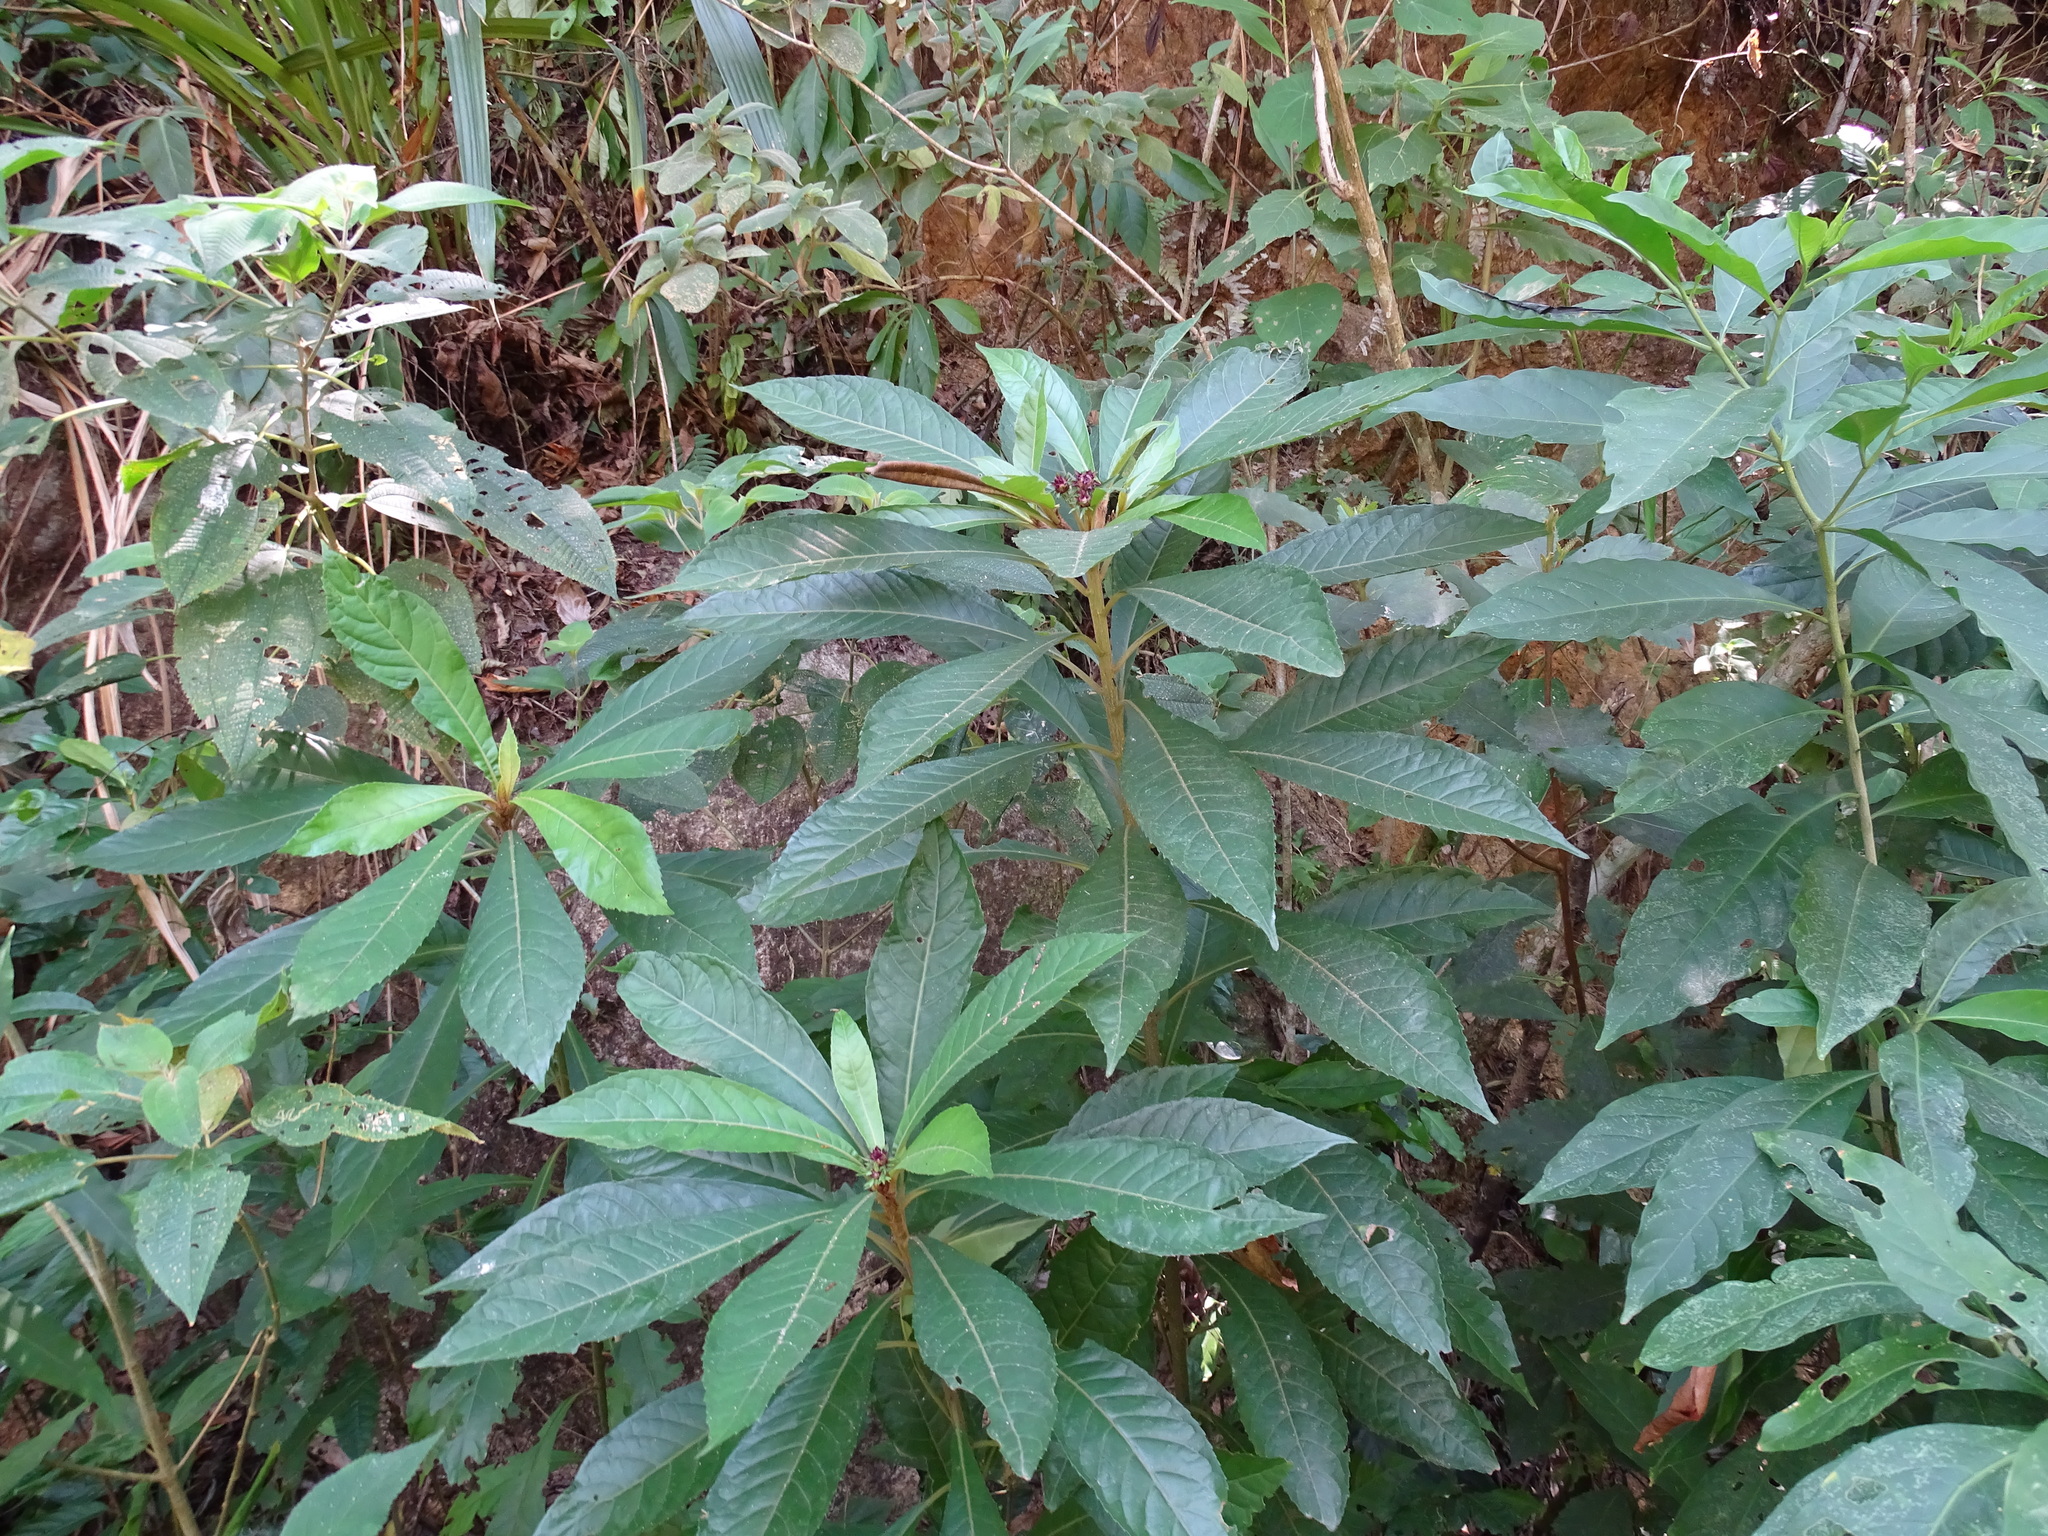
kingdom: Plantae
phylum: Tracheophyta
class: Magnoliopsida
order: Asterales
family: Asteraceae
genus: Lepidonia
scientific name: Lepidonia salvinae
